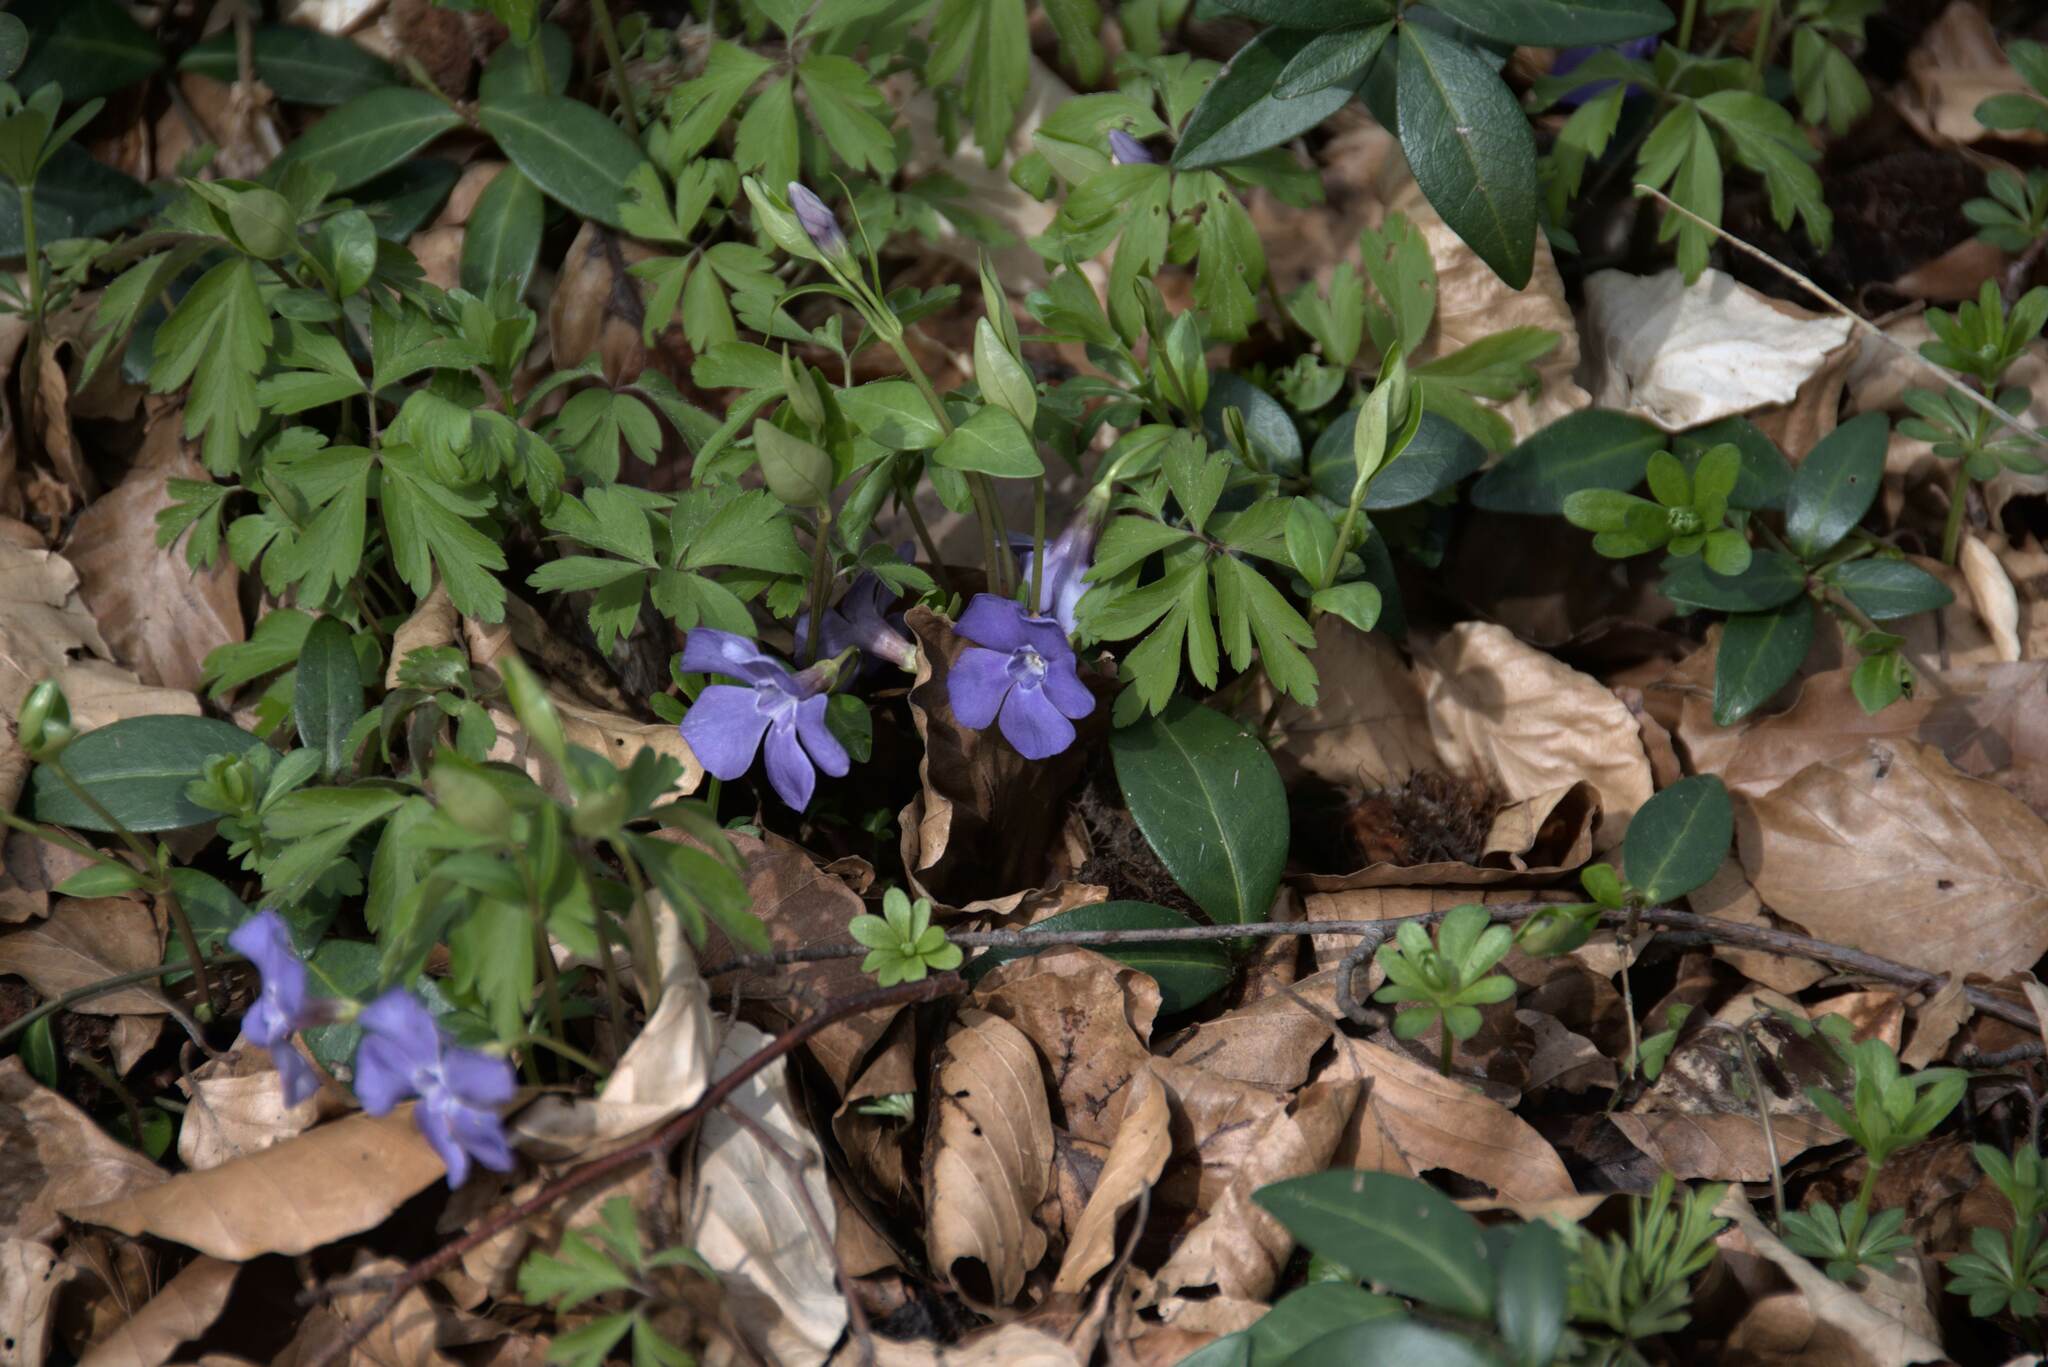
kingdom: Plantae
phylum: Tracheophyta
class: Magnoliopsida
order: Gentianales
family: Apocynaceae
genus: Vinca
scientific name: Vinca minor
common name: Lesser periwinkle
